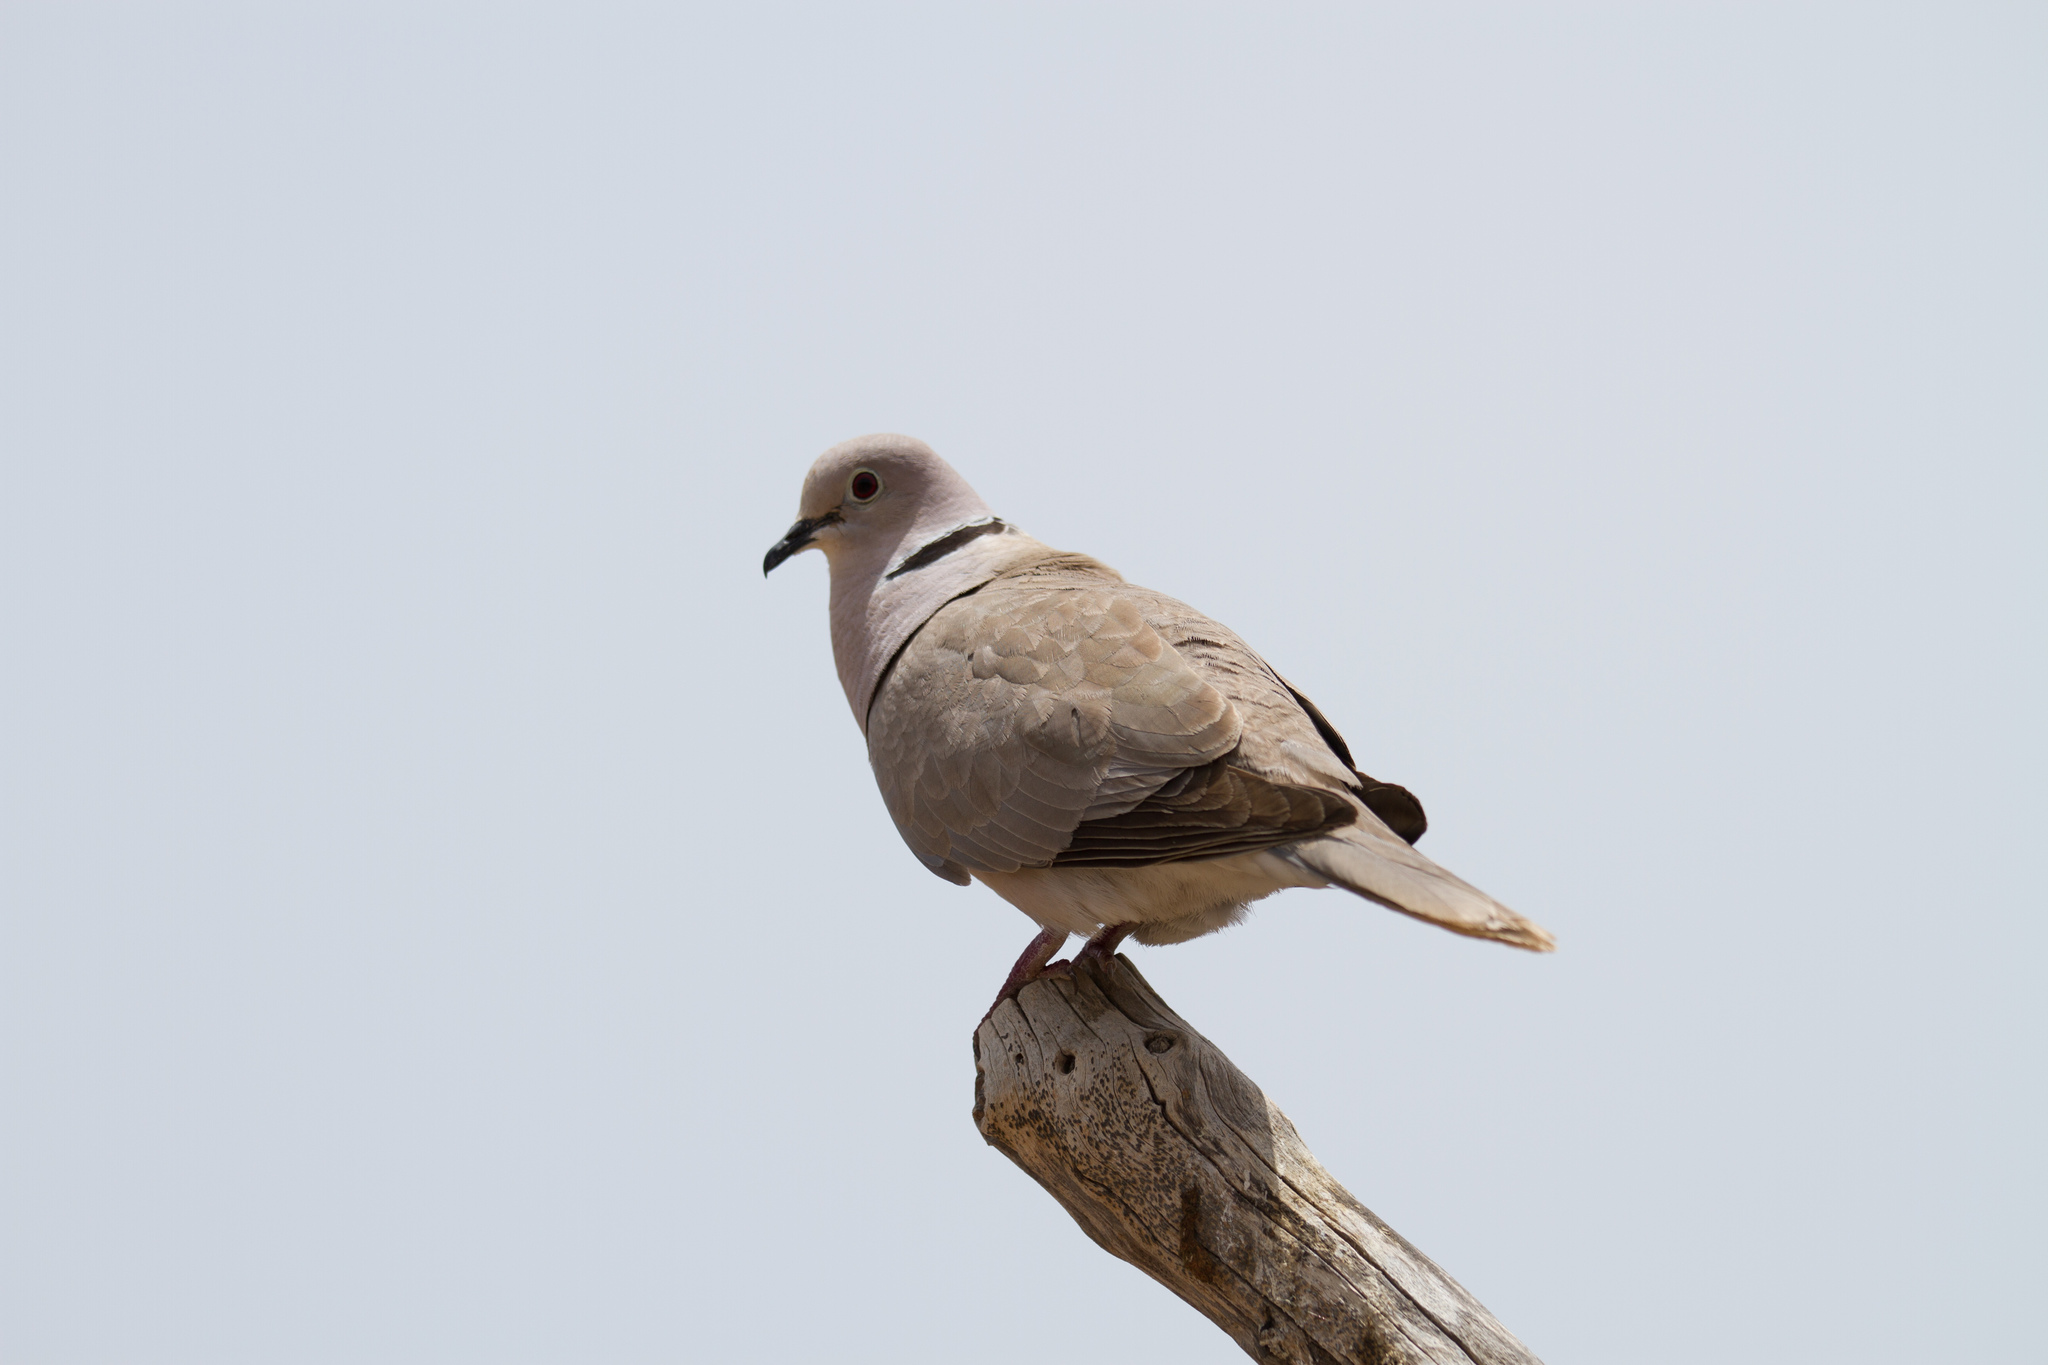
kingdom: Animalia
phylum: Chordata
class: Aves
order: Columbiformes
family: Columbidae
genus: Streptopelia
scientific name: Streptopelia decaocto
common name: Eurasian collared dove
